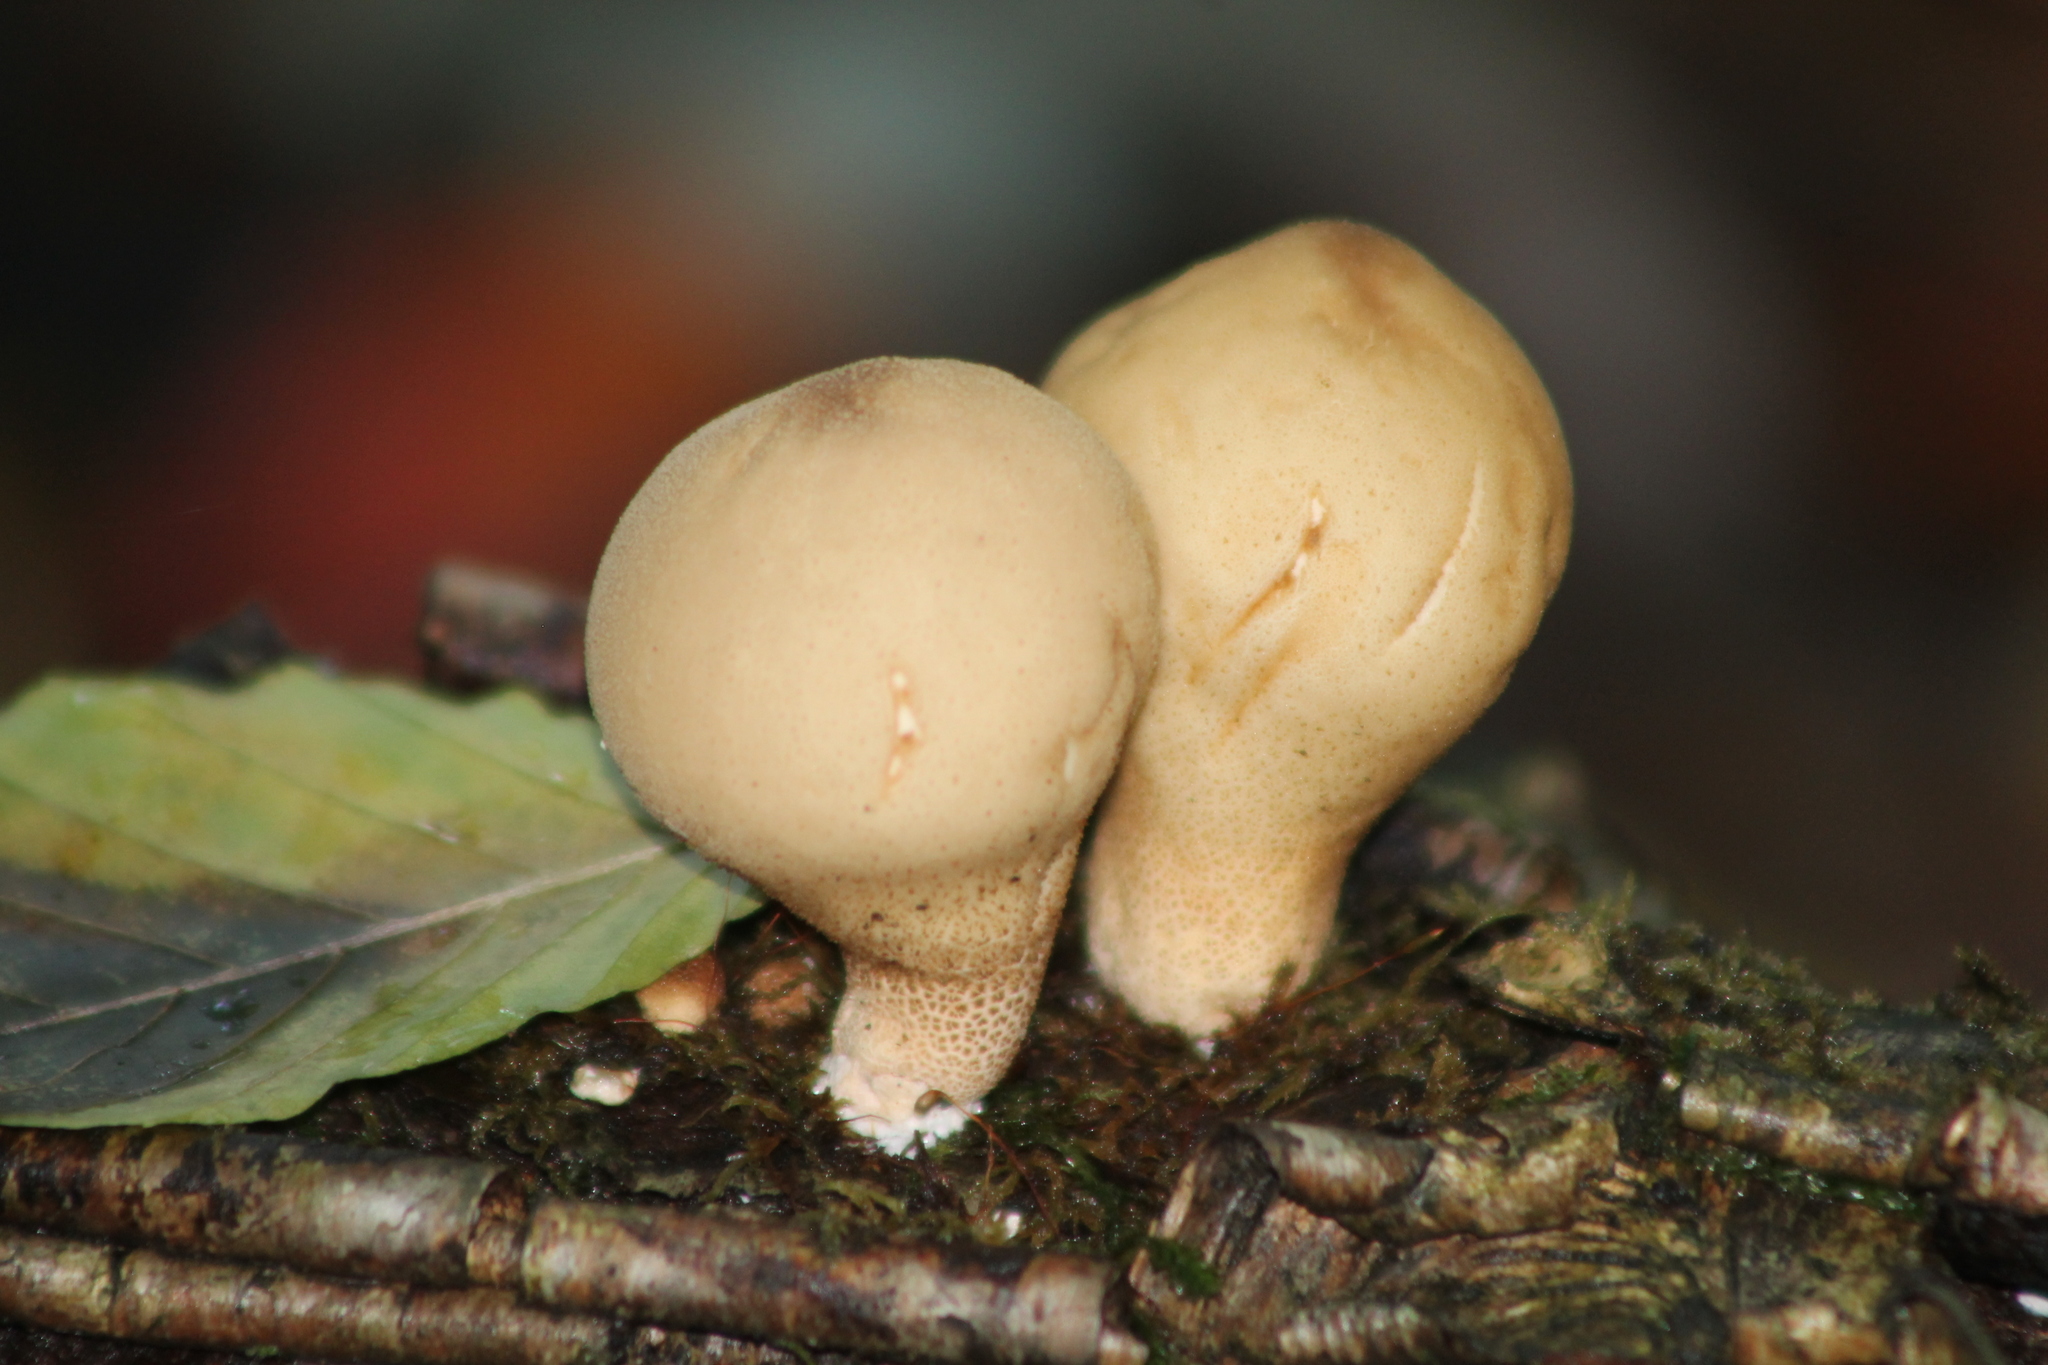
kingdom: Fungi
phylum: Basidiomycota
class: Agaricomycetes
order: Agaricales
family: Lycoperdaceae
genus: Apioperdon
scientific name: Apioperdon pyriforme
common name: Pear-shaped puffball
